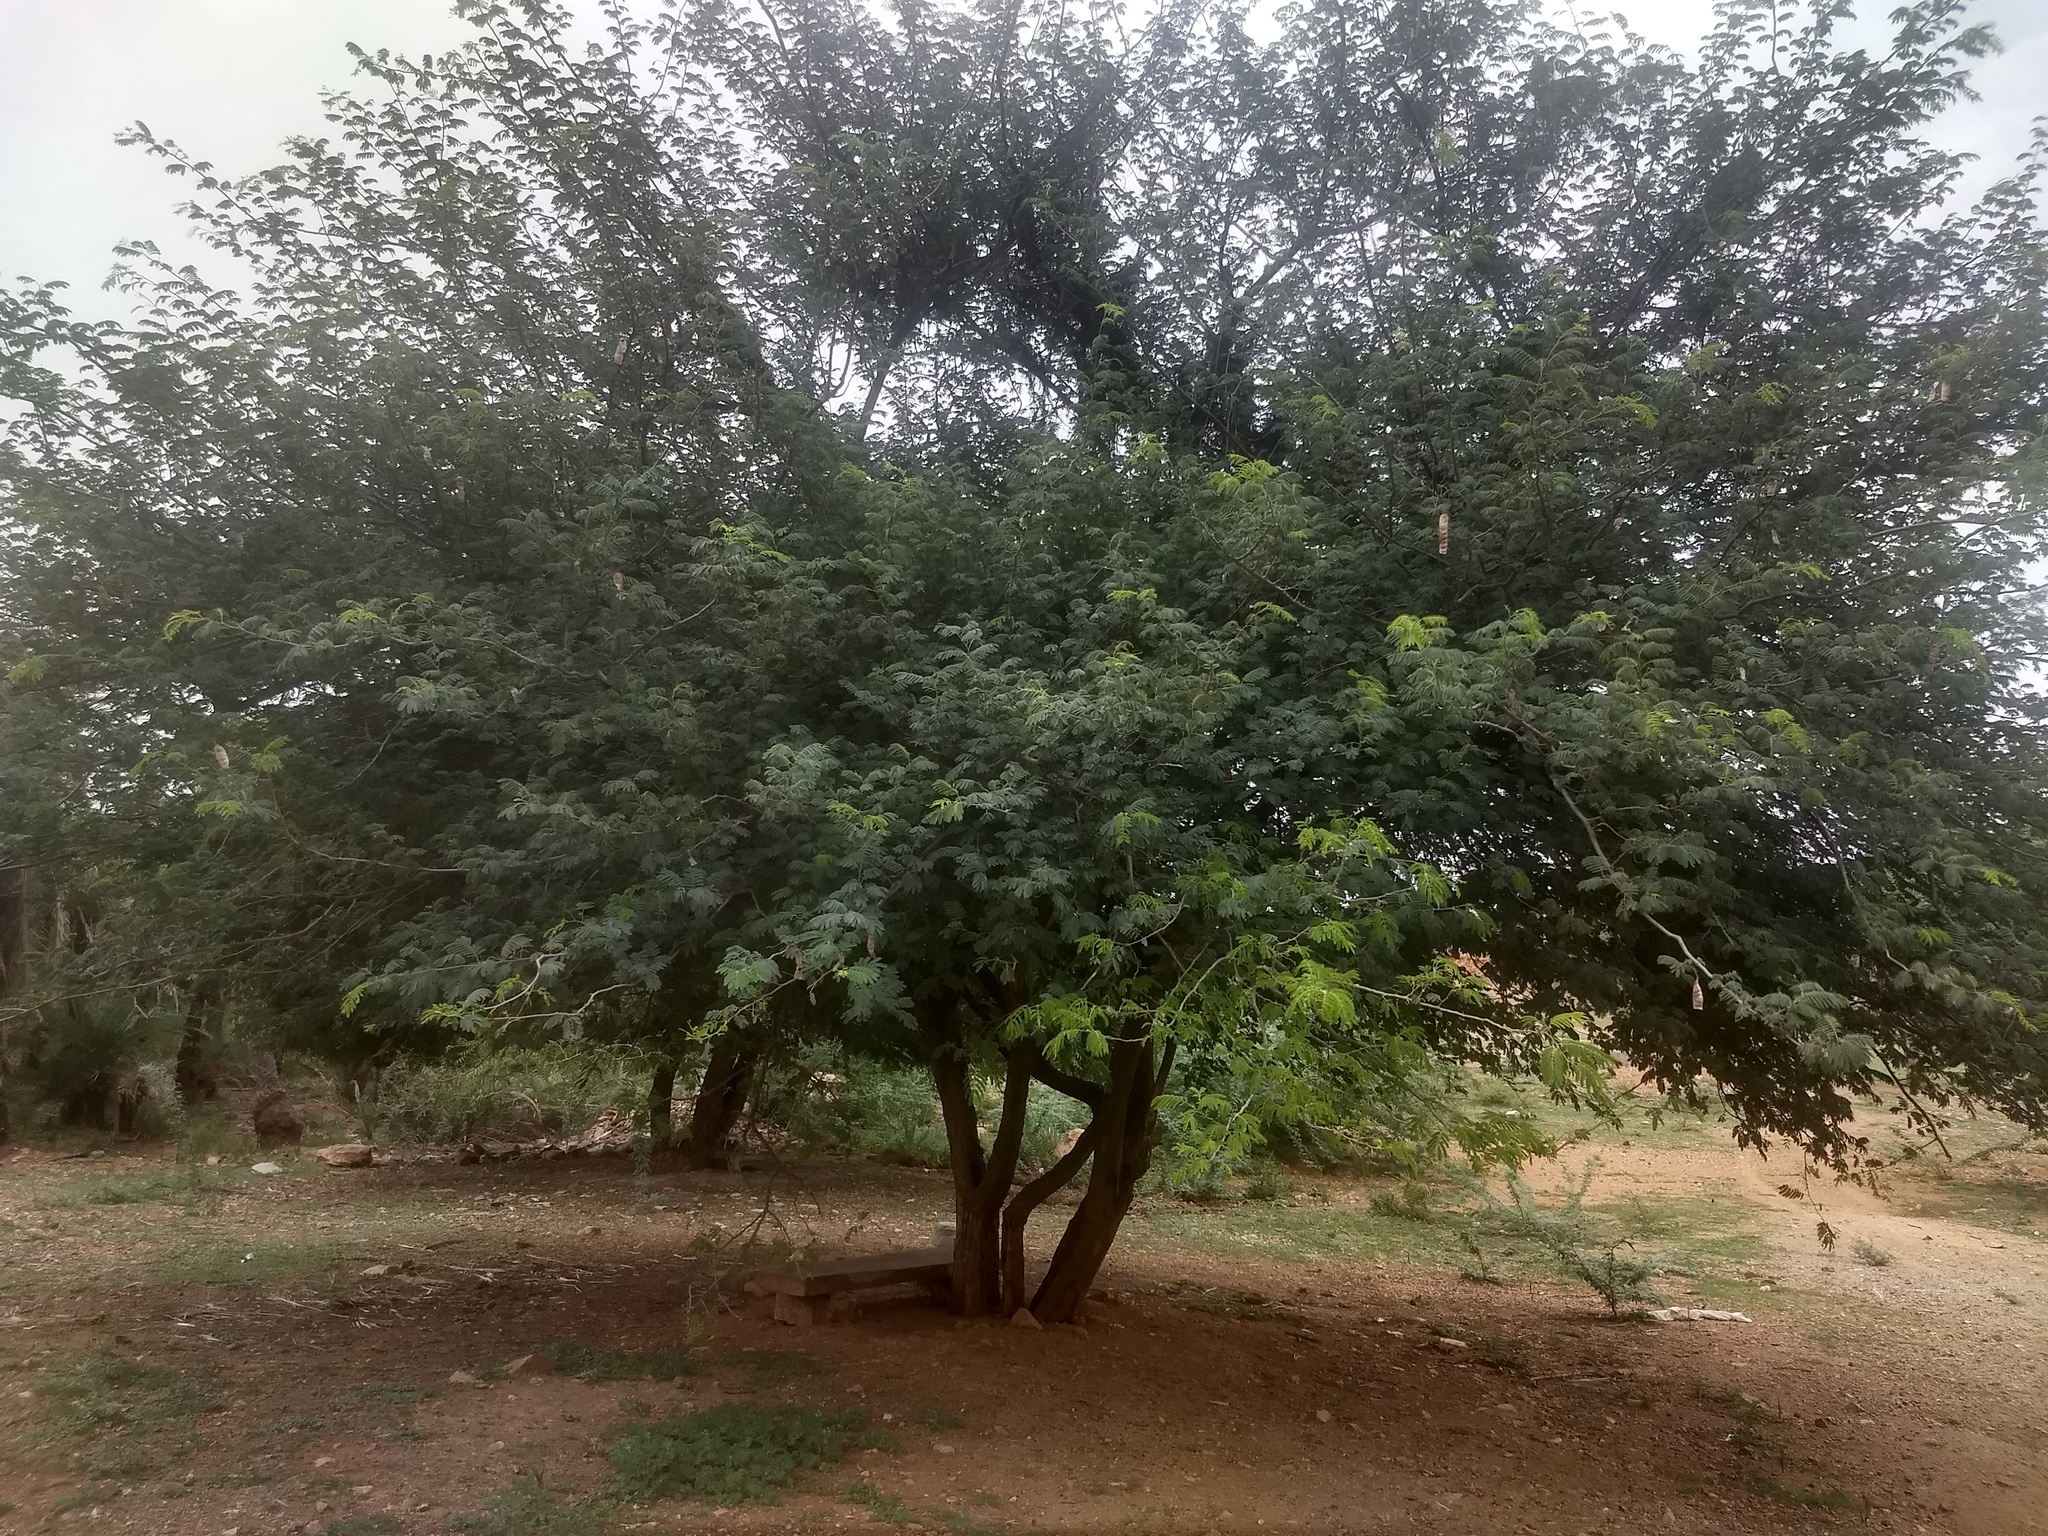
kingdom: Plantae
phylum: Tracheophyta
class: Magnoliopsida
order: Fabales
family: Fabaceae
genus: Albizia
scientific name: Albizia amara
